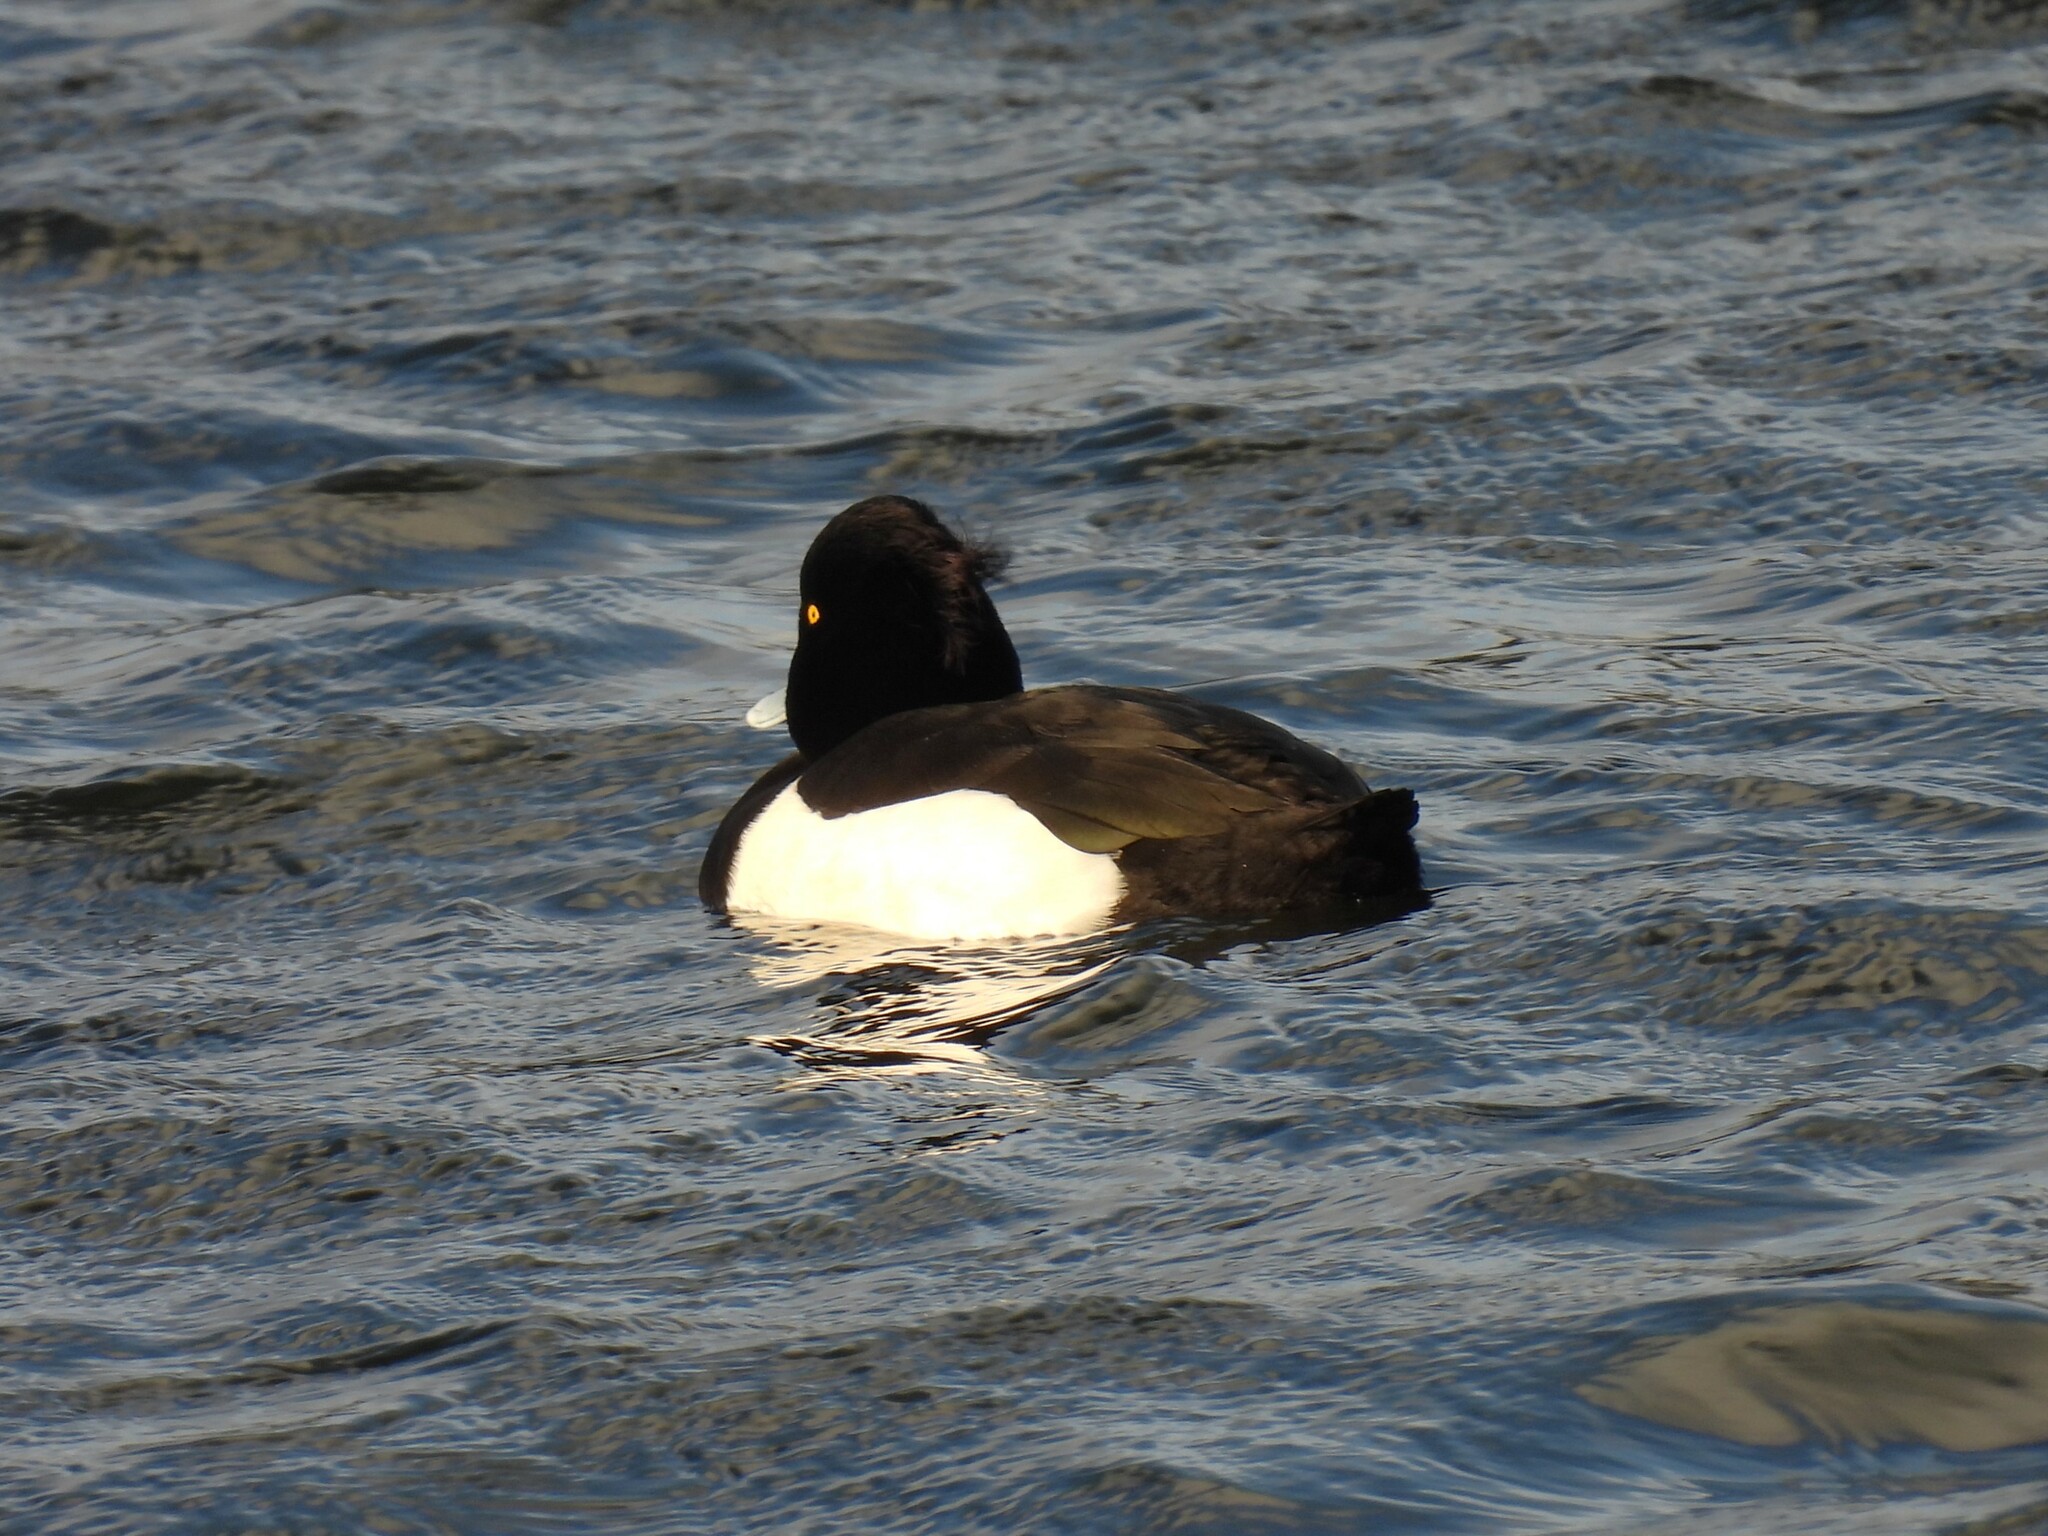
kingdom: Animalia
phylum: Chordata
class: Aves
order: Anseriformes
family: Anatidae
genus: Aythya
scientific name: Aythya fuligula
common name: Tufted duck
